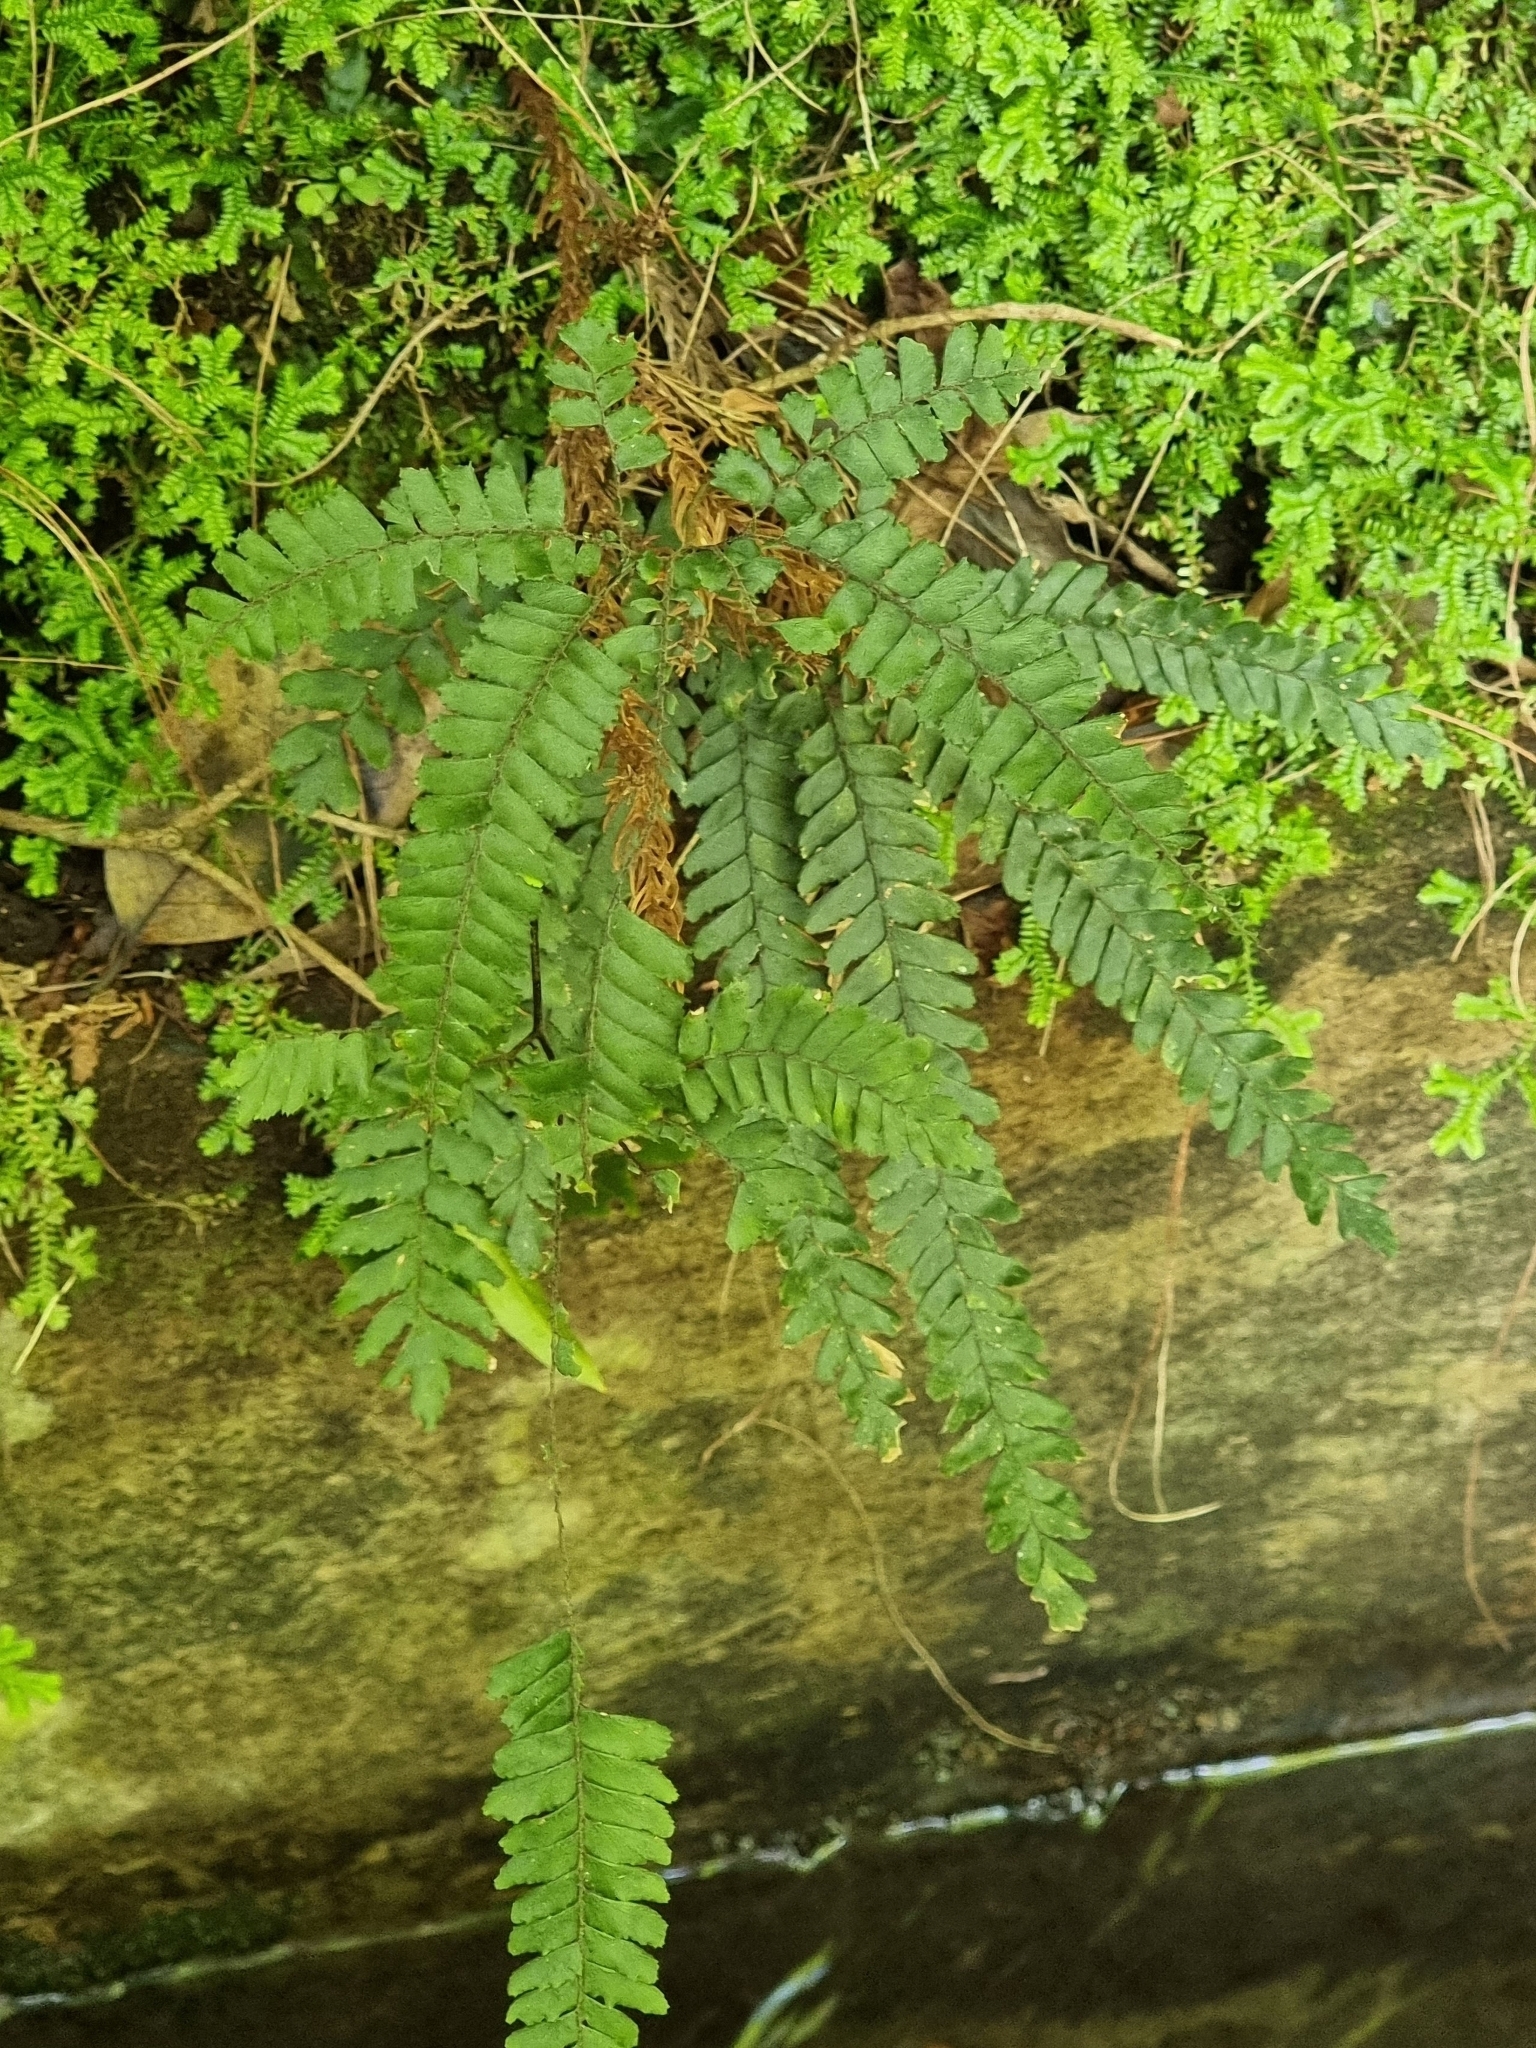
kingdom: Plantae
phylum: Tracheophyta
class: Polypodiopsida
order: Polypodiales
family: Pteridaceae
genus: Adiantum
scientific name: Adiantum hispidulum
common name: Rough maidenhair
